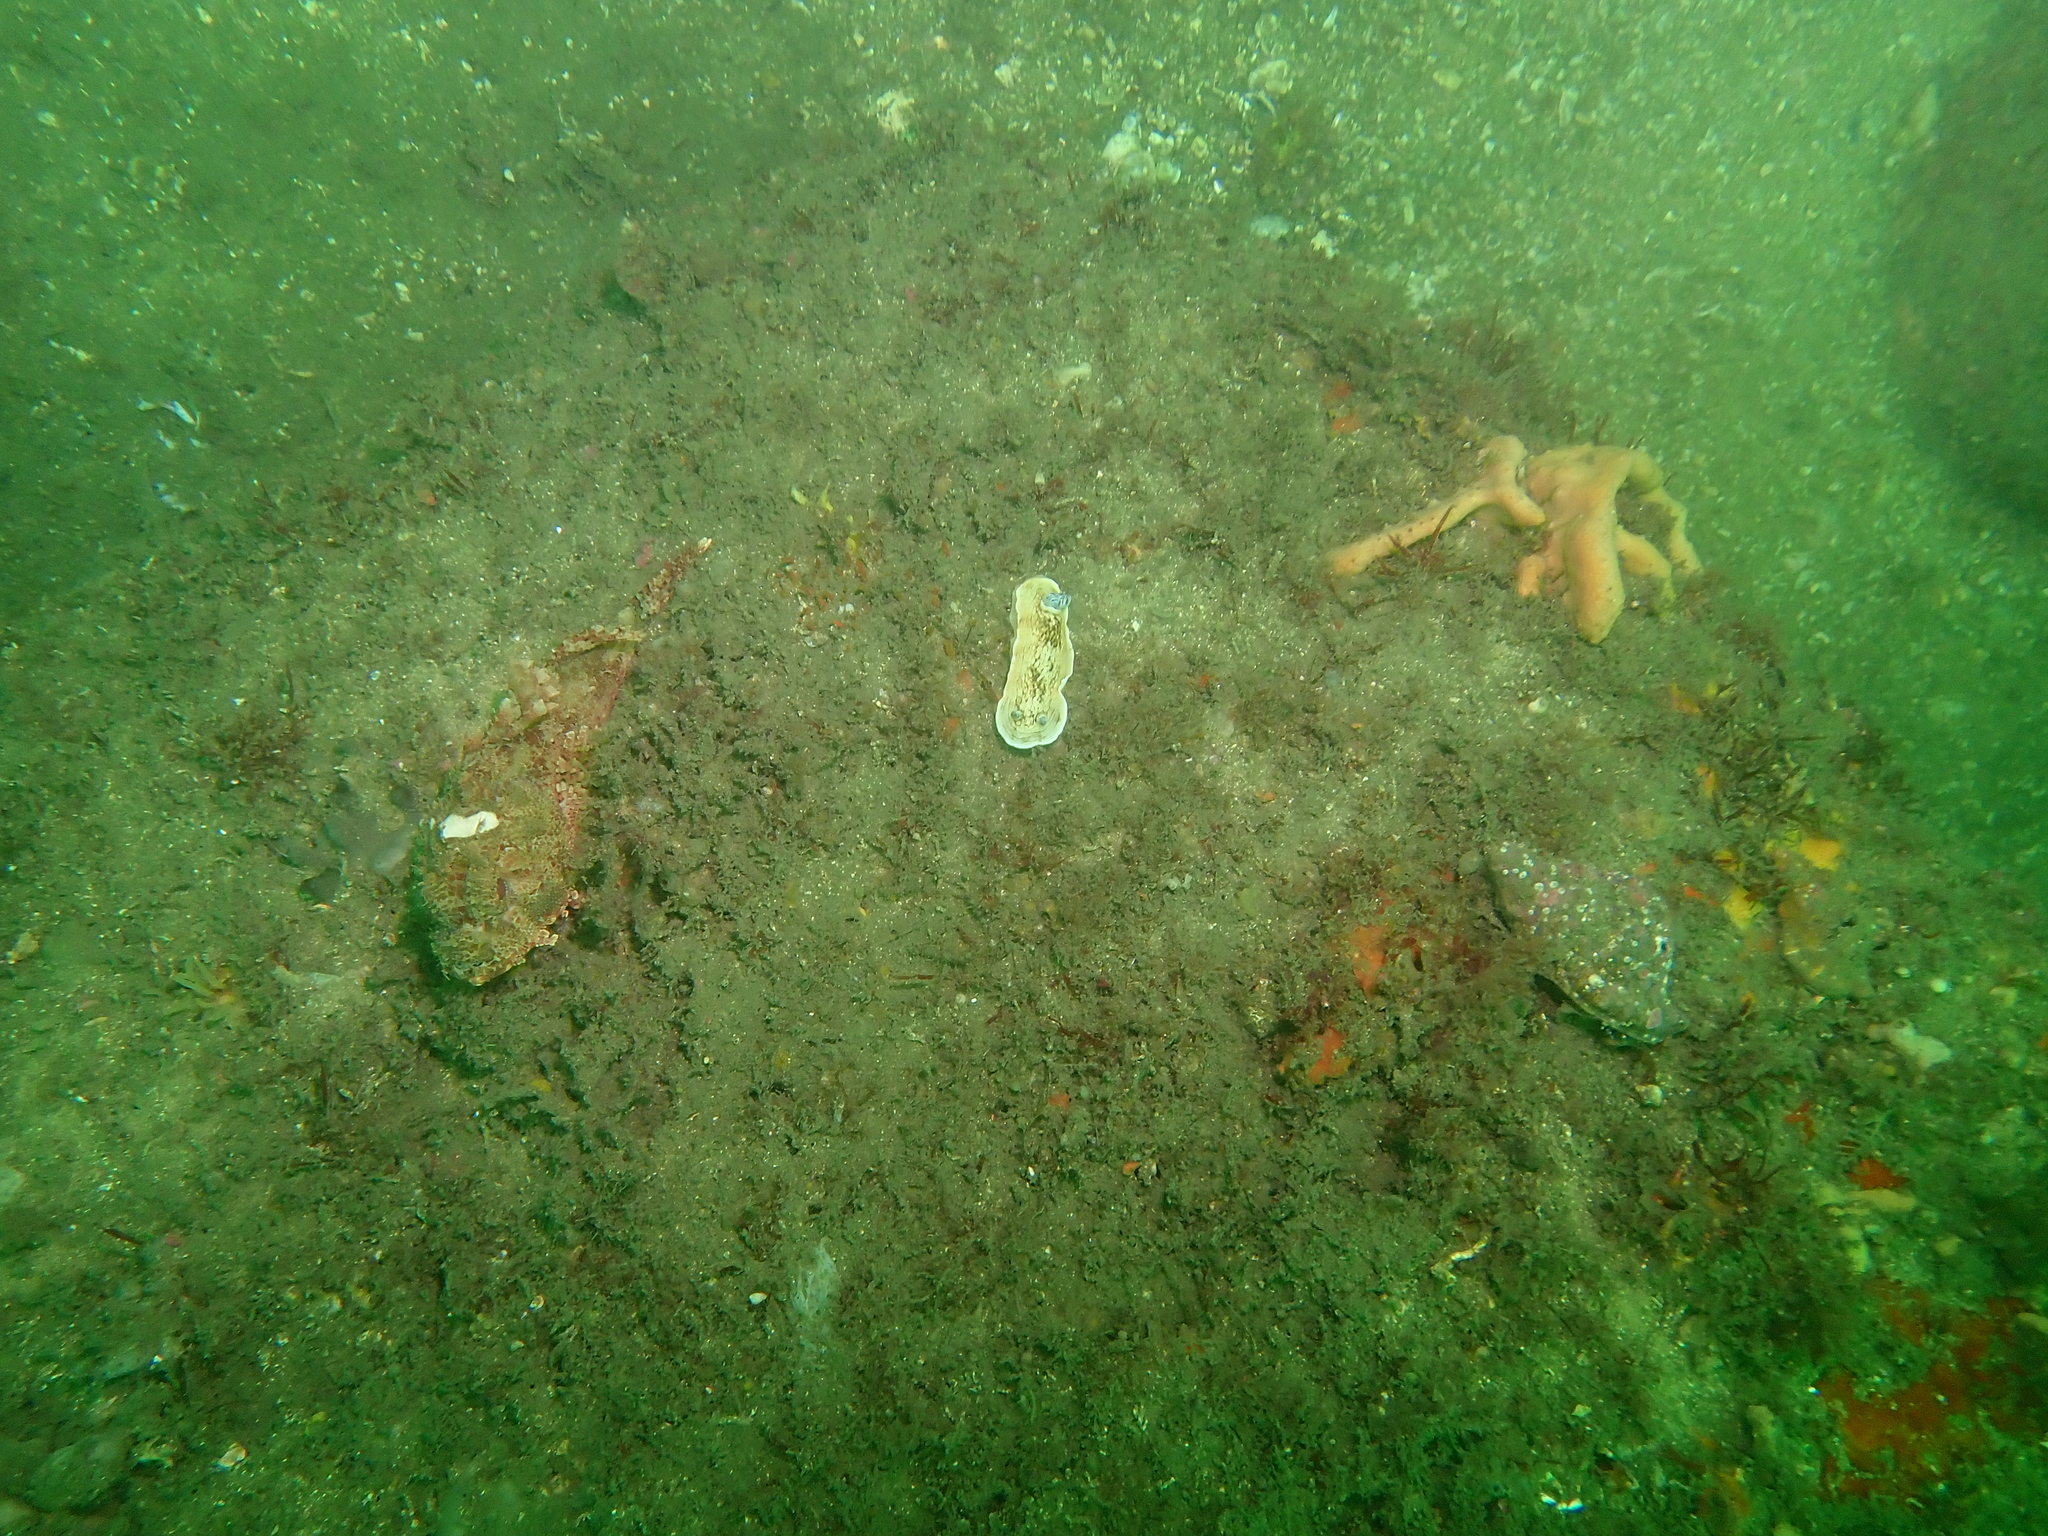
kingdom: Animalia
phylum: Mollusca
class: Gastropoda
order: Nudibranchia
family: Dorididae
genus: Aphelodoris
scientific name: Aphelodoris varia
